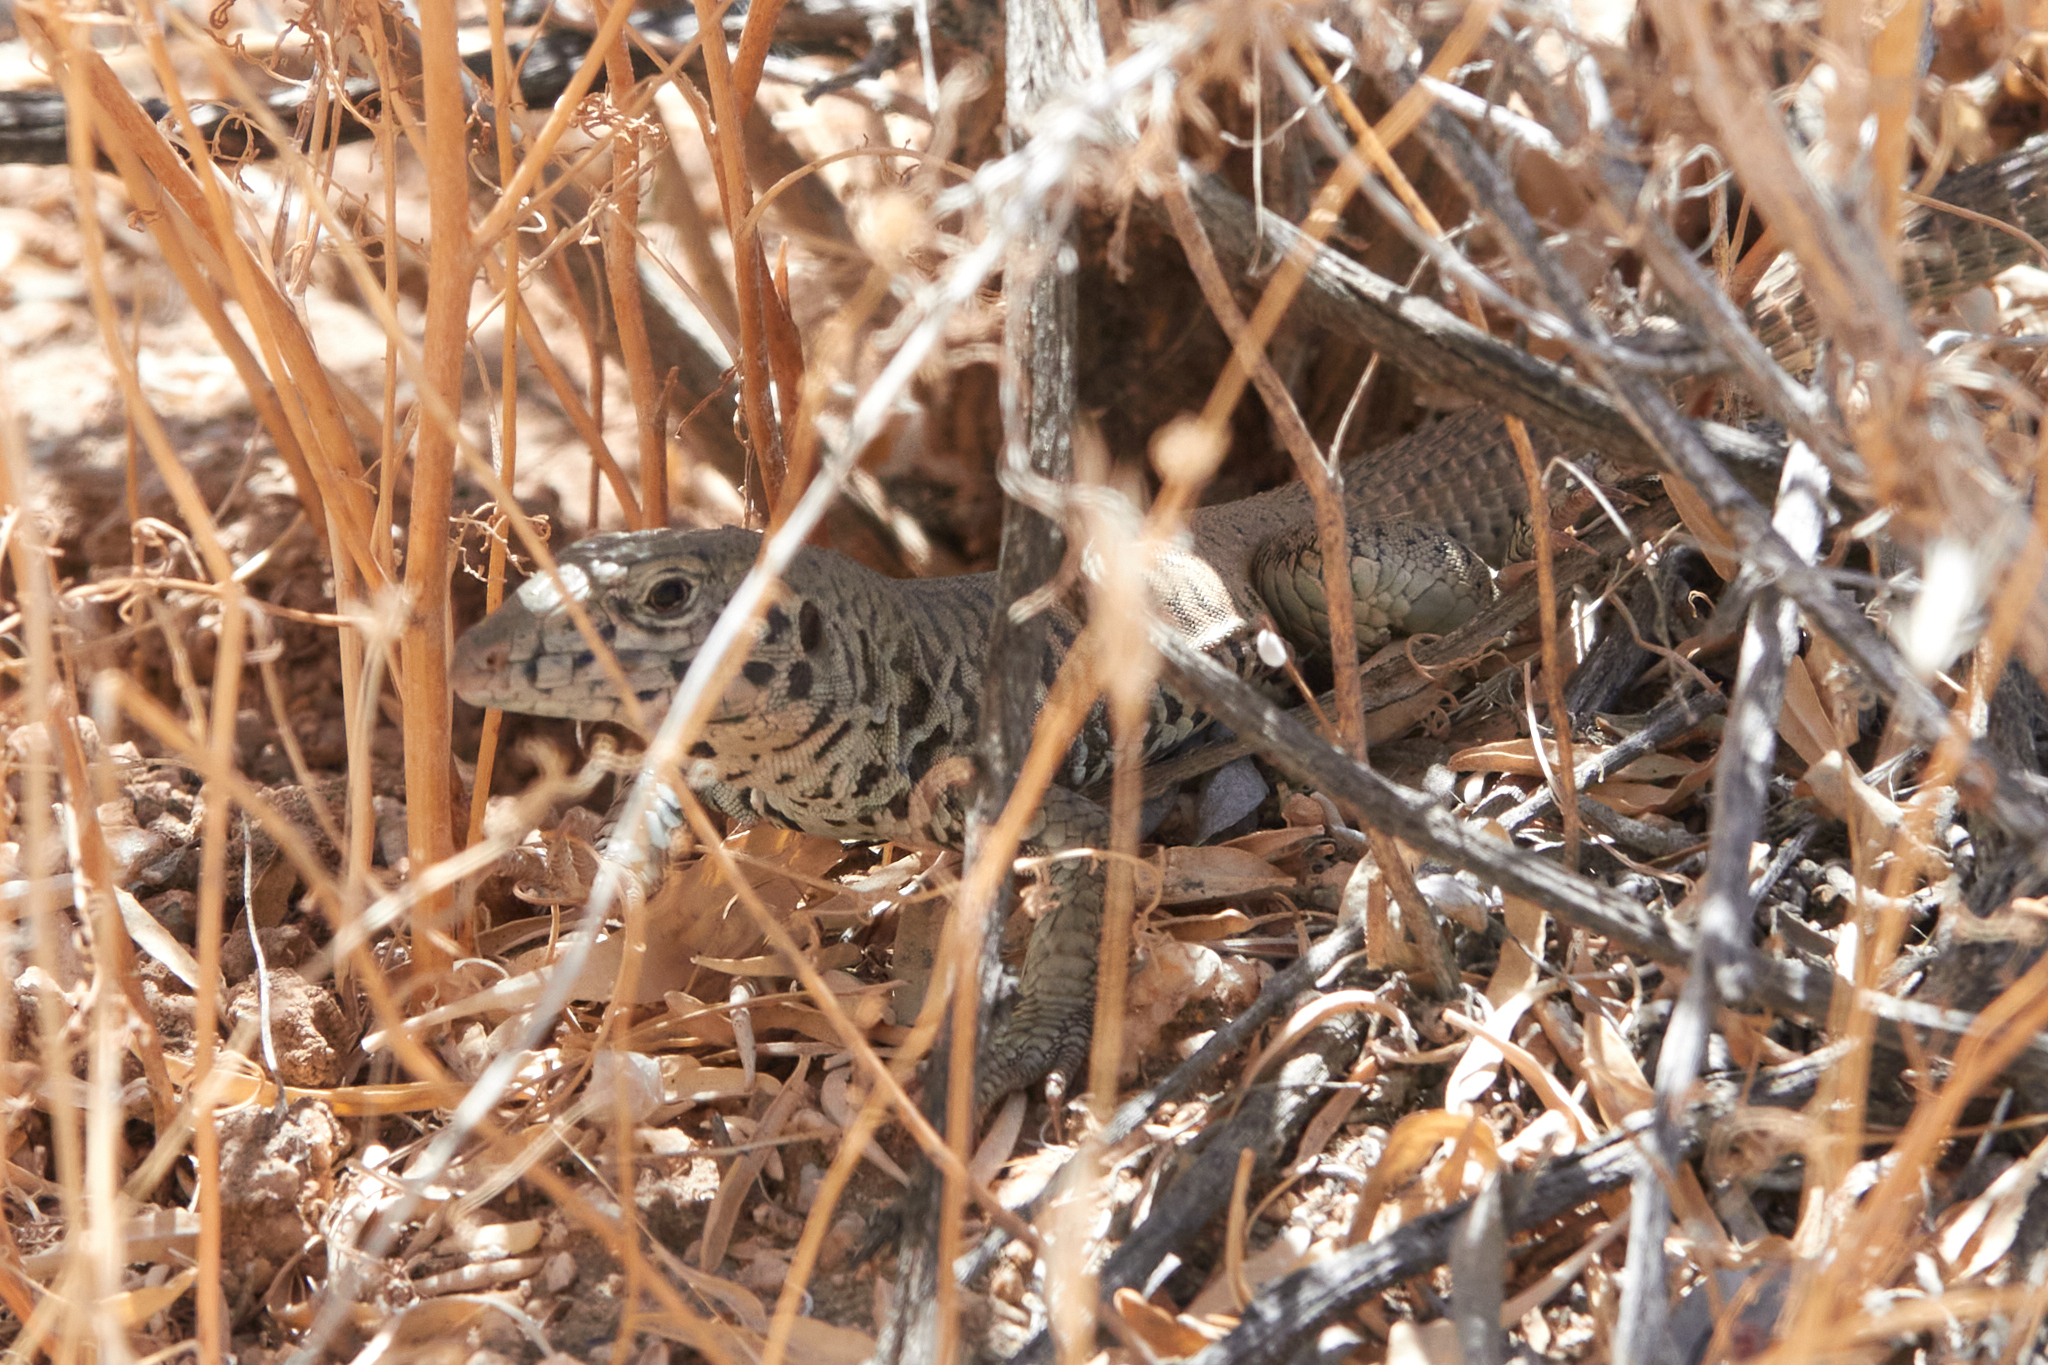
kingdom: Animalia
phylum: Chordata
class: Squamata
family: Teiidae
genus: Aspidoscelis
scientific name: Aspidoscelis tigris
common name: Tiger whiptail
